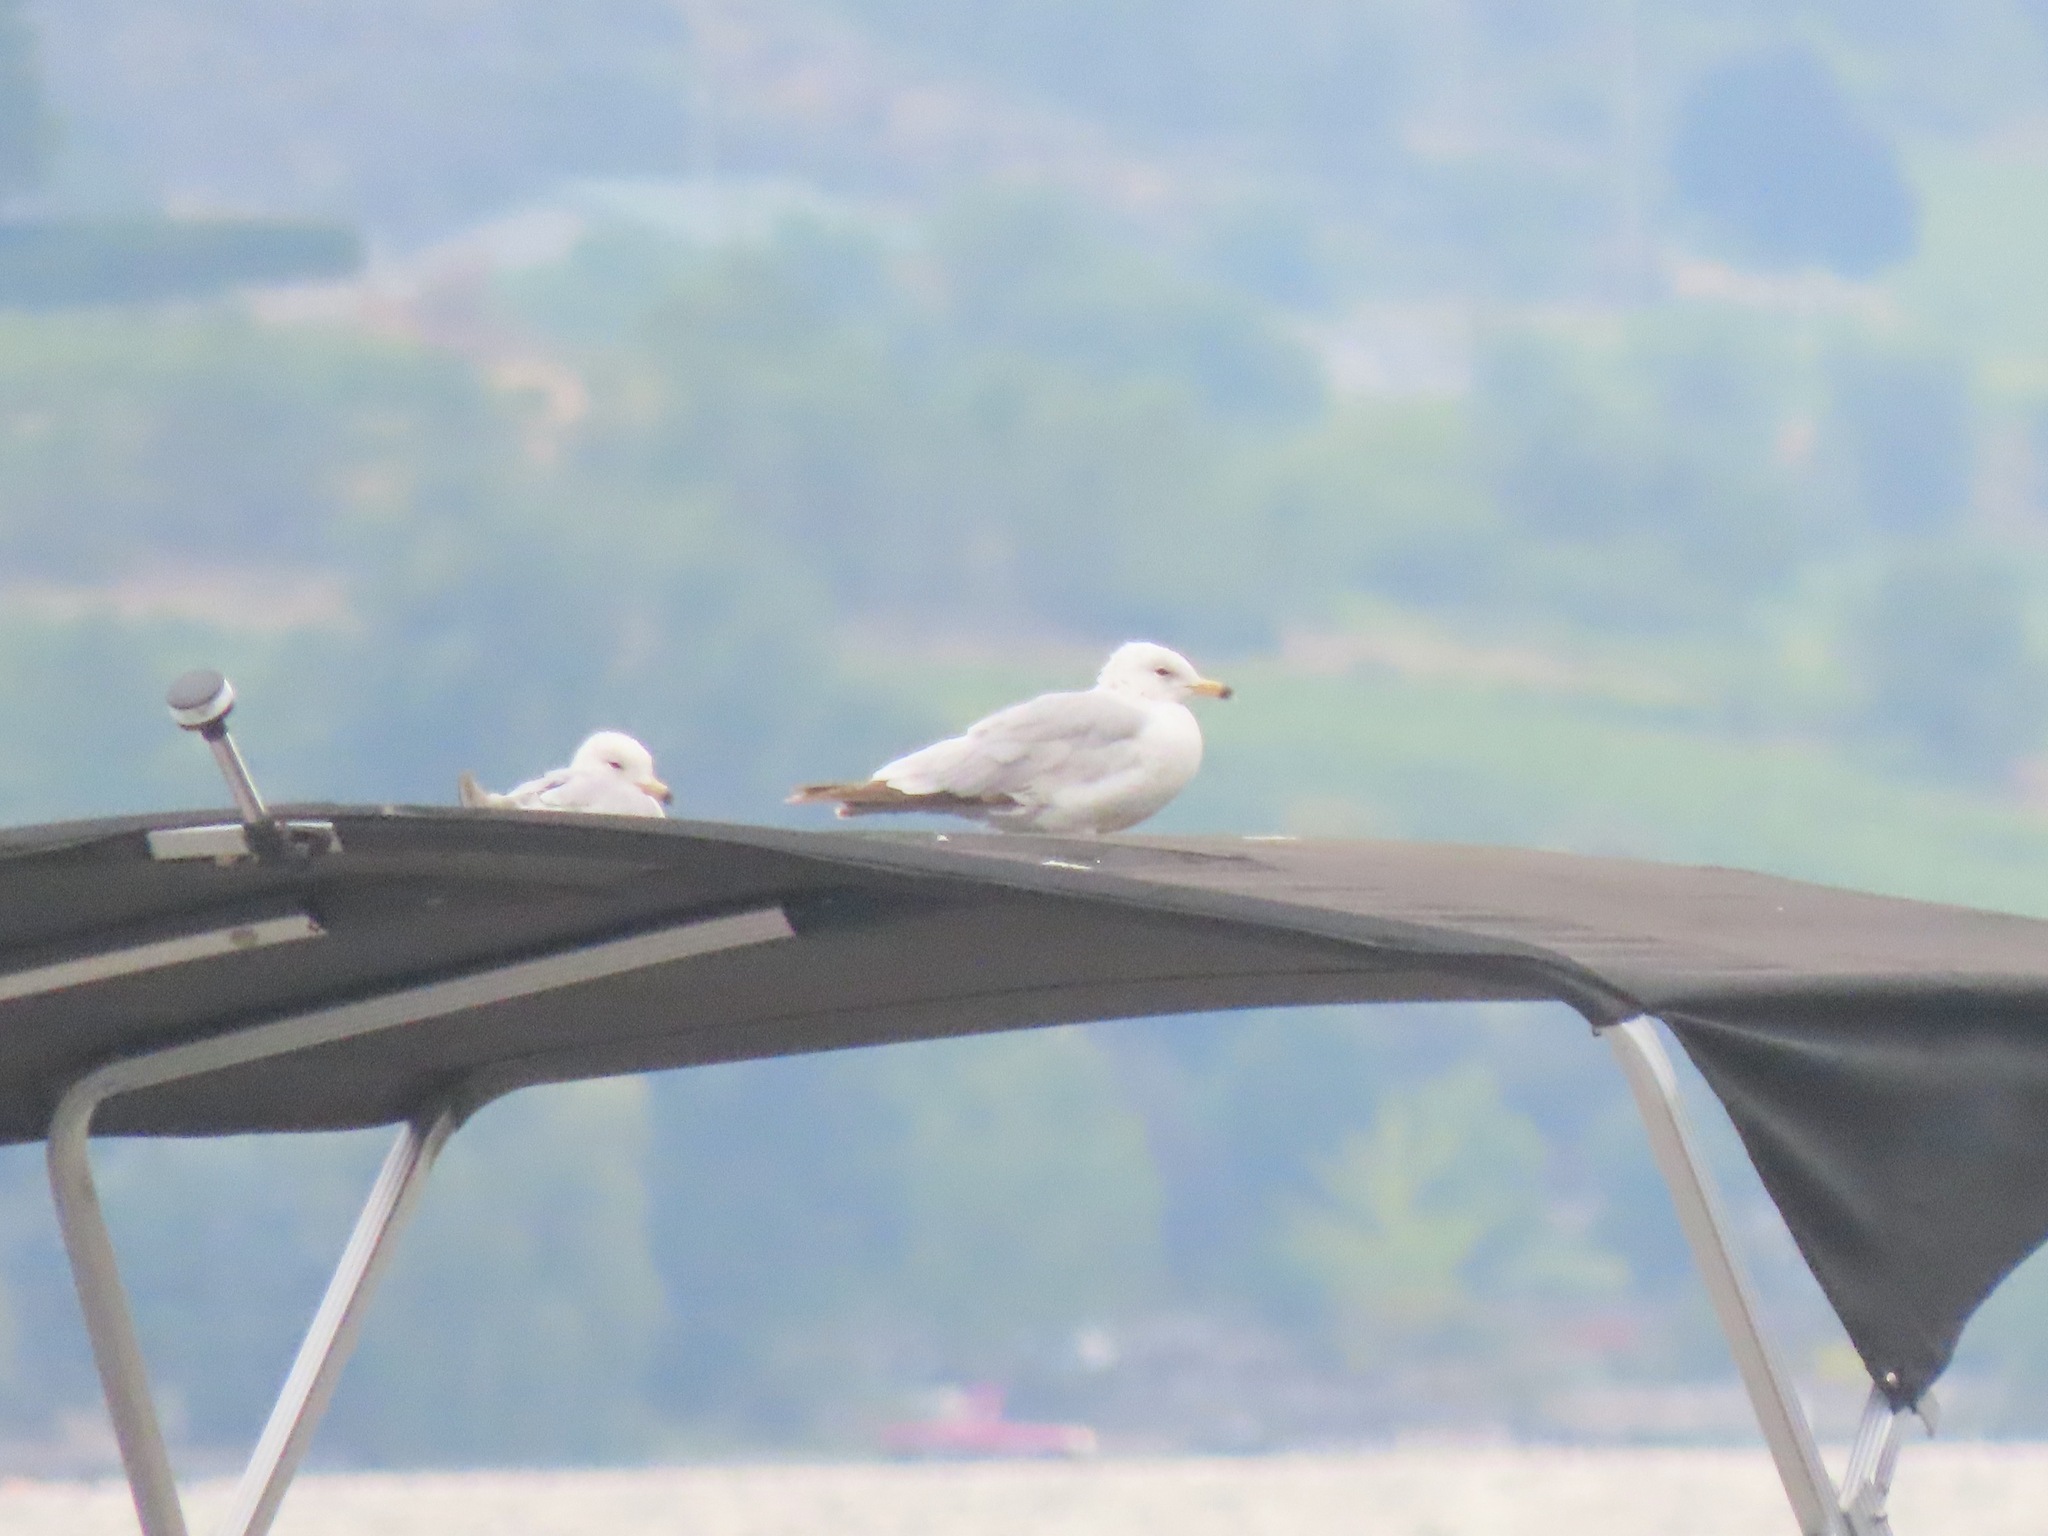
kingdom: Animalia
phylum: Chordata
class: Aves
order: Charadriiformes
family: Laridae
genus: Larus
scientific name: Larus delawarensis
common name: Ring-billed gull
